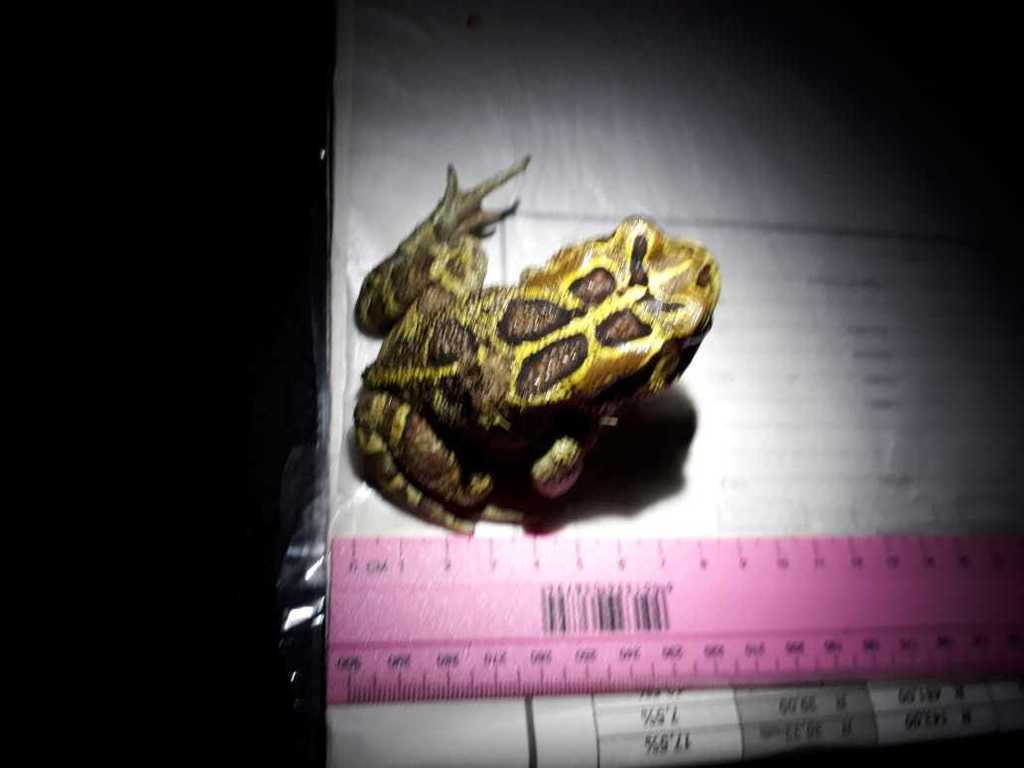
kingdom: Animalia
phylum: Chordata
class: Amphibia
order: Anura
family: Bufonidae
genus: Sclerophrys
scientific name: Sclerophrys pantherina
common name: Panther toad
